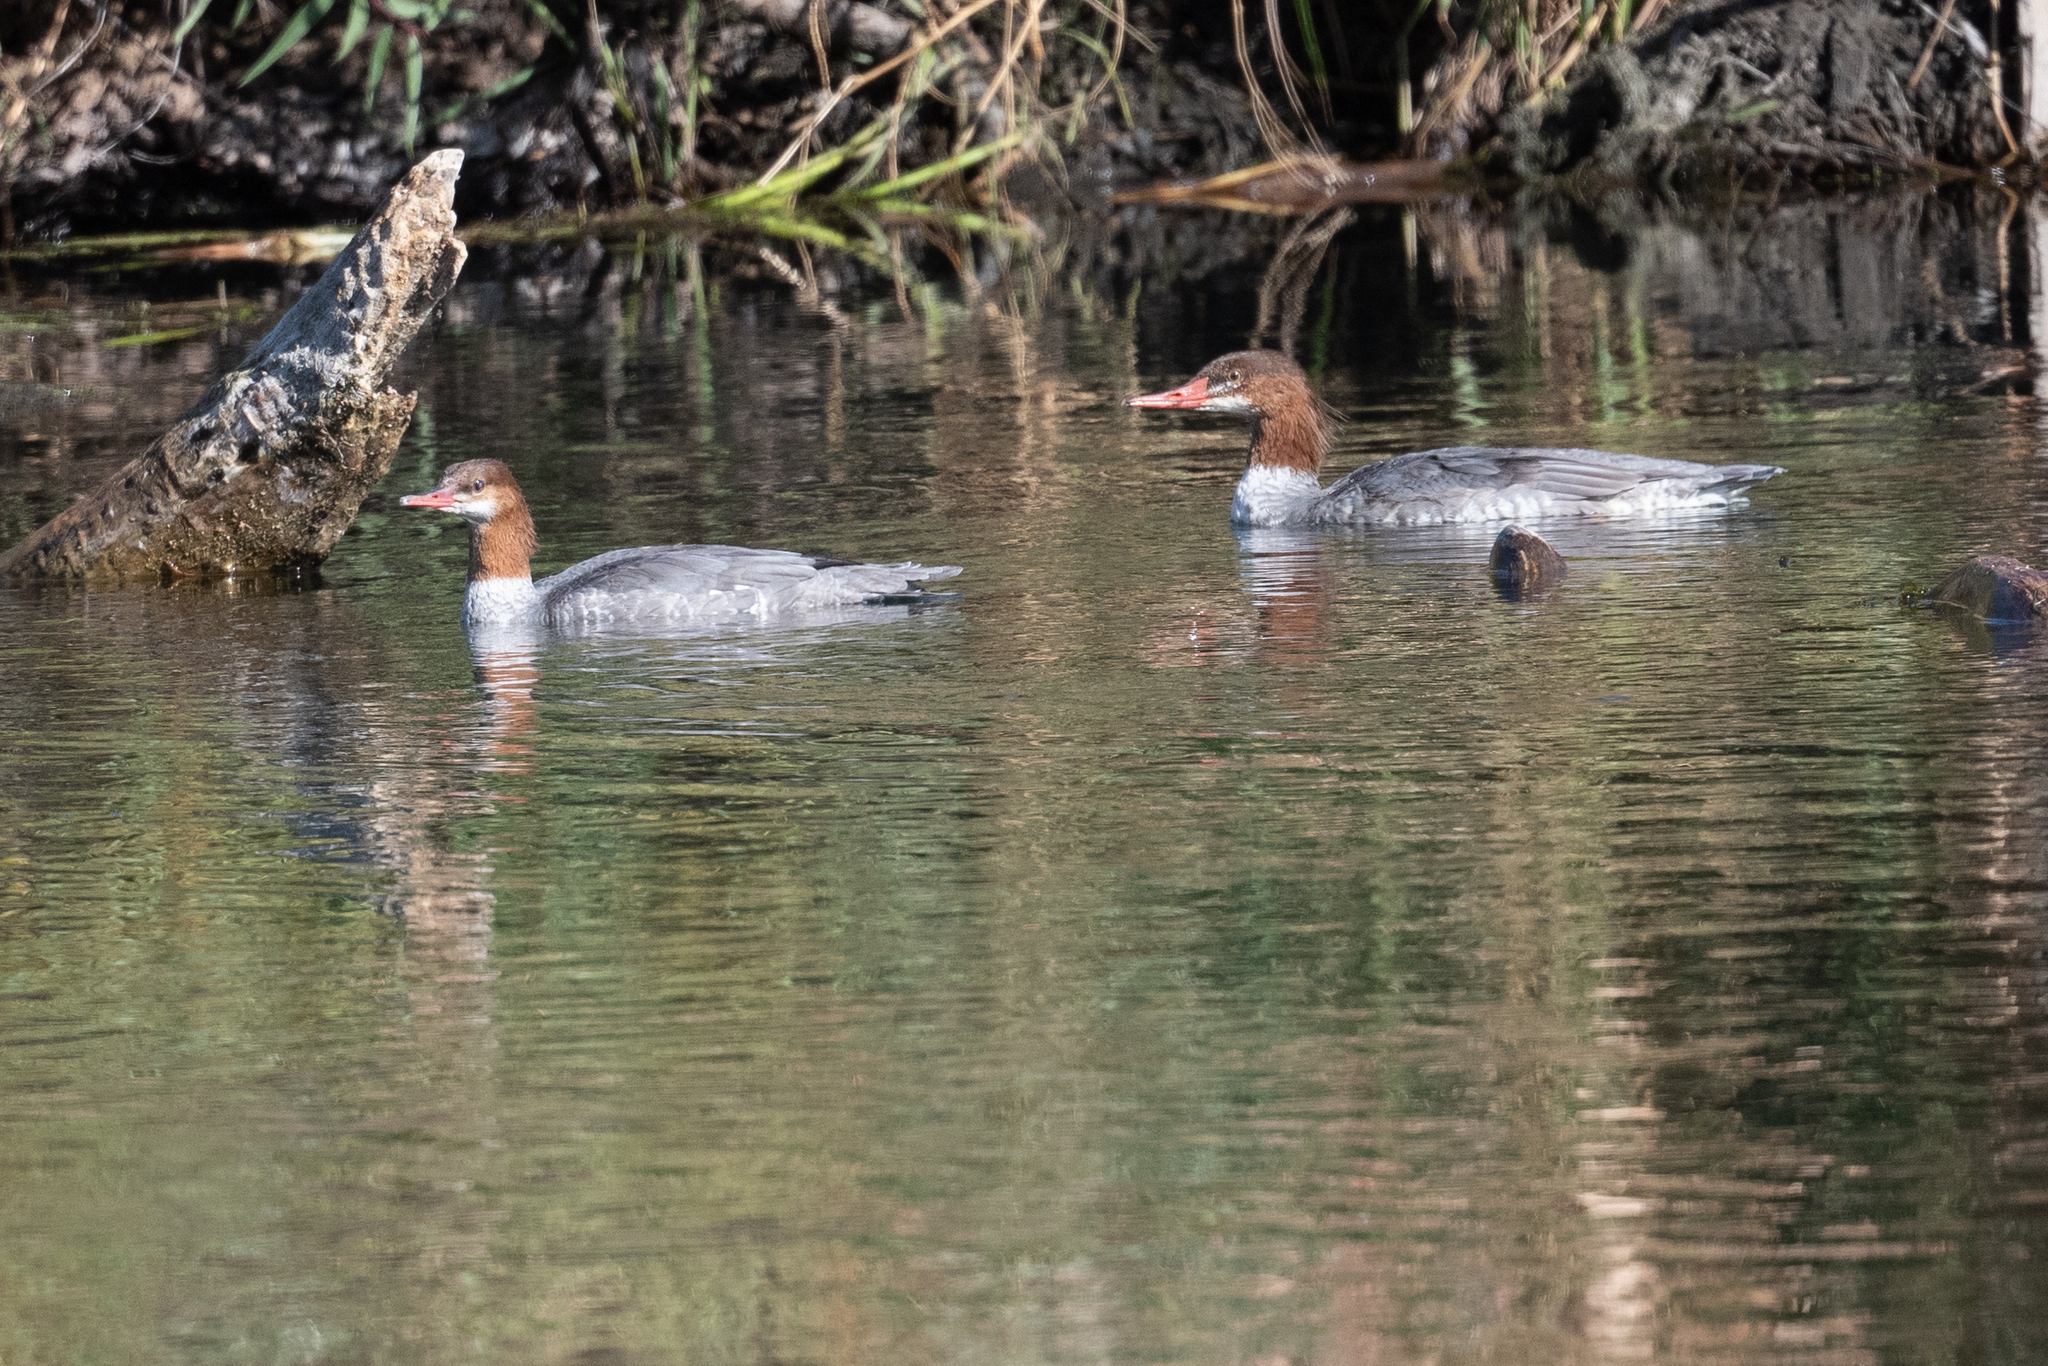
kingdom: Animalia
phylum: Chordata
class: Aves
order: Anseriformes
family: Anatidae
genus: Mergus
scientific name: Mergus merganser
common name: Common merganser
